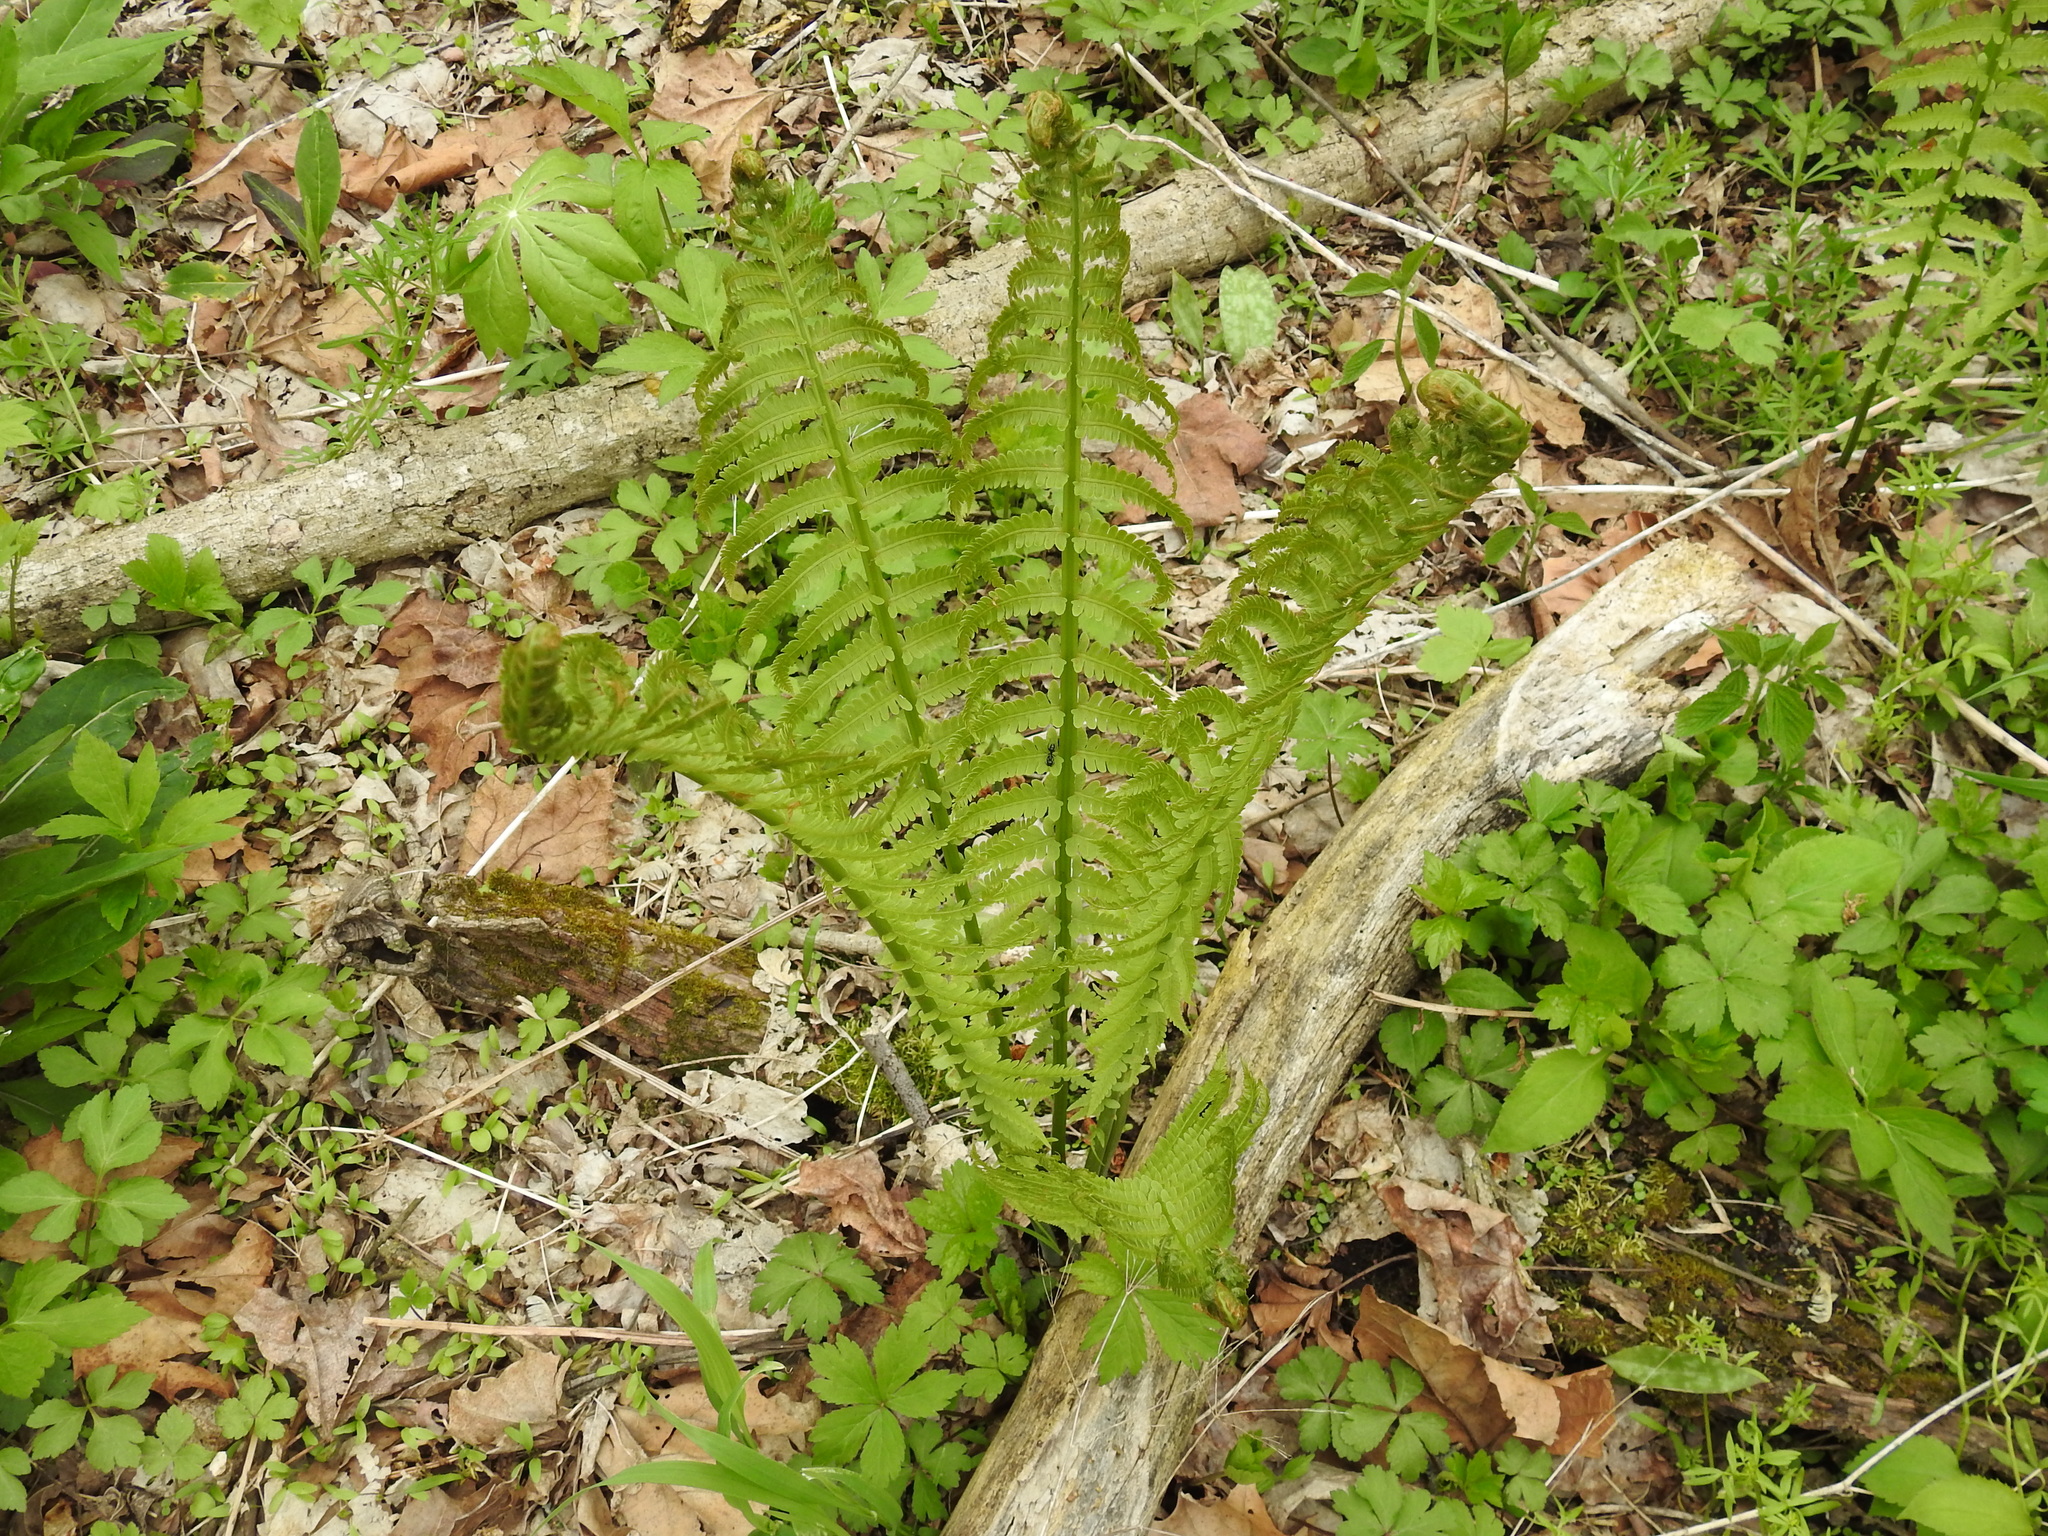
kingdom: Plantae
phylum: Tracheophyta
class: Polypodiopsida
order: Polypodiales
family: Onocleaceae
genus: Matteuccia
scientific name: Matteuccia struthiopteris
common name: Ostrich fern
